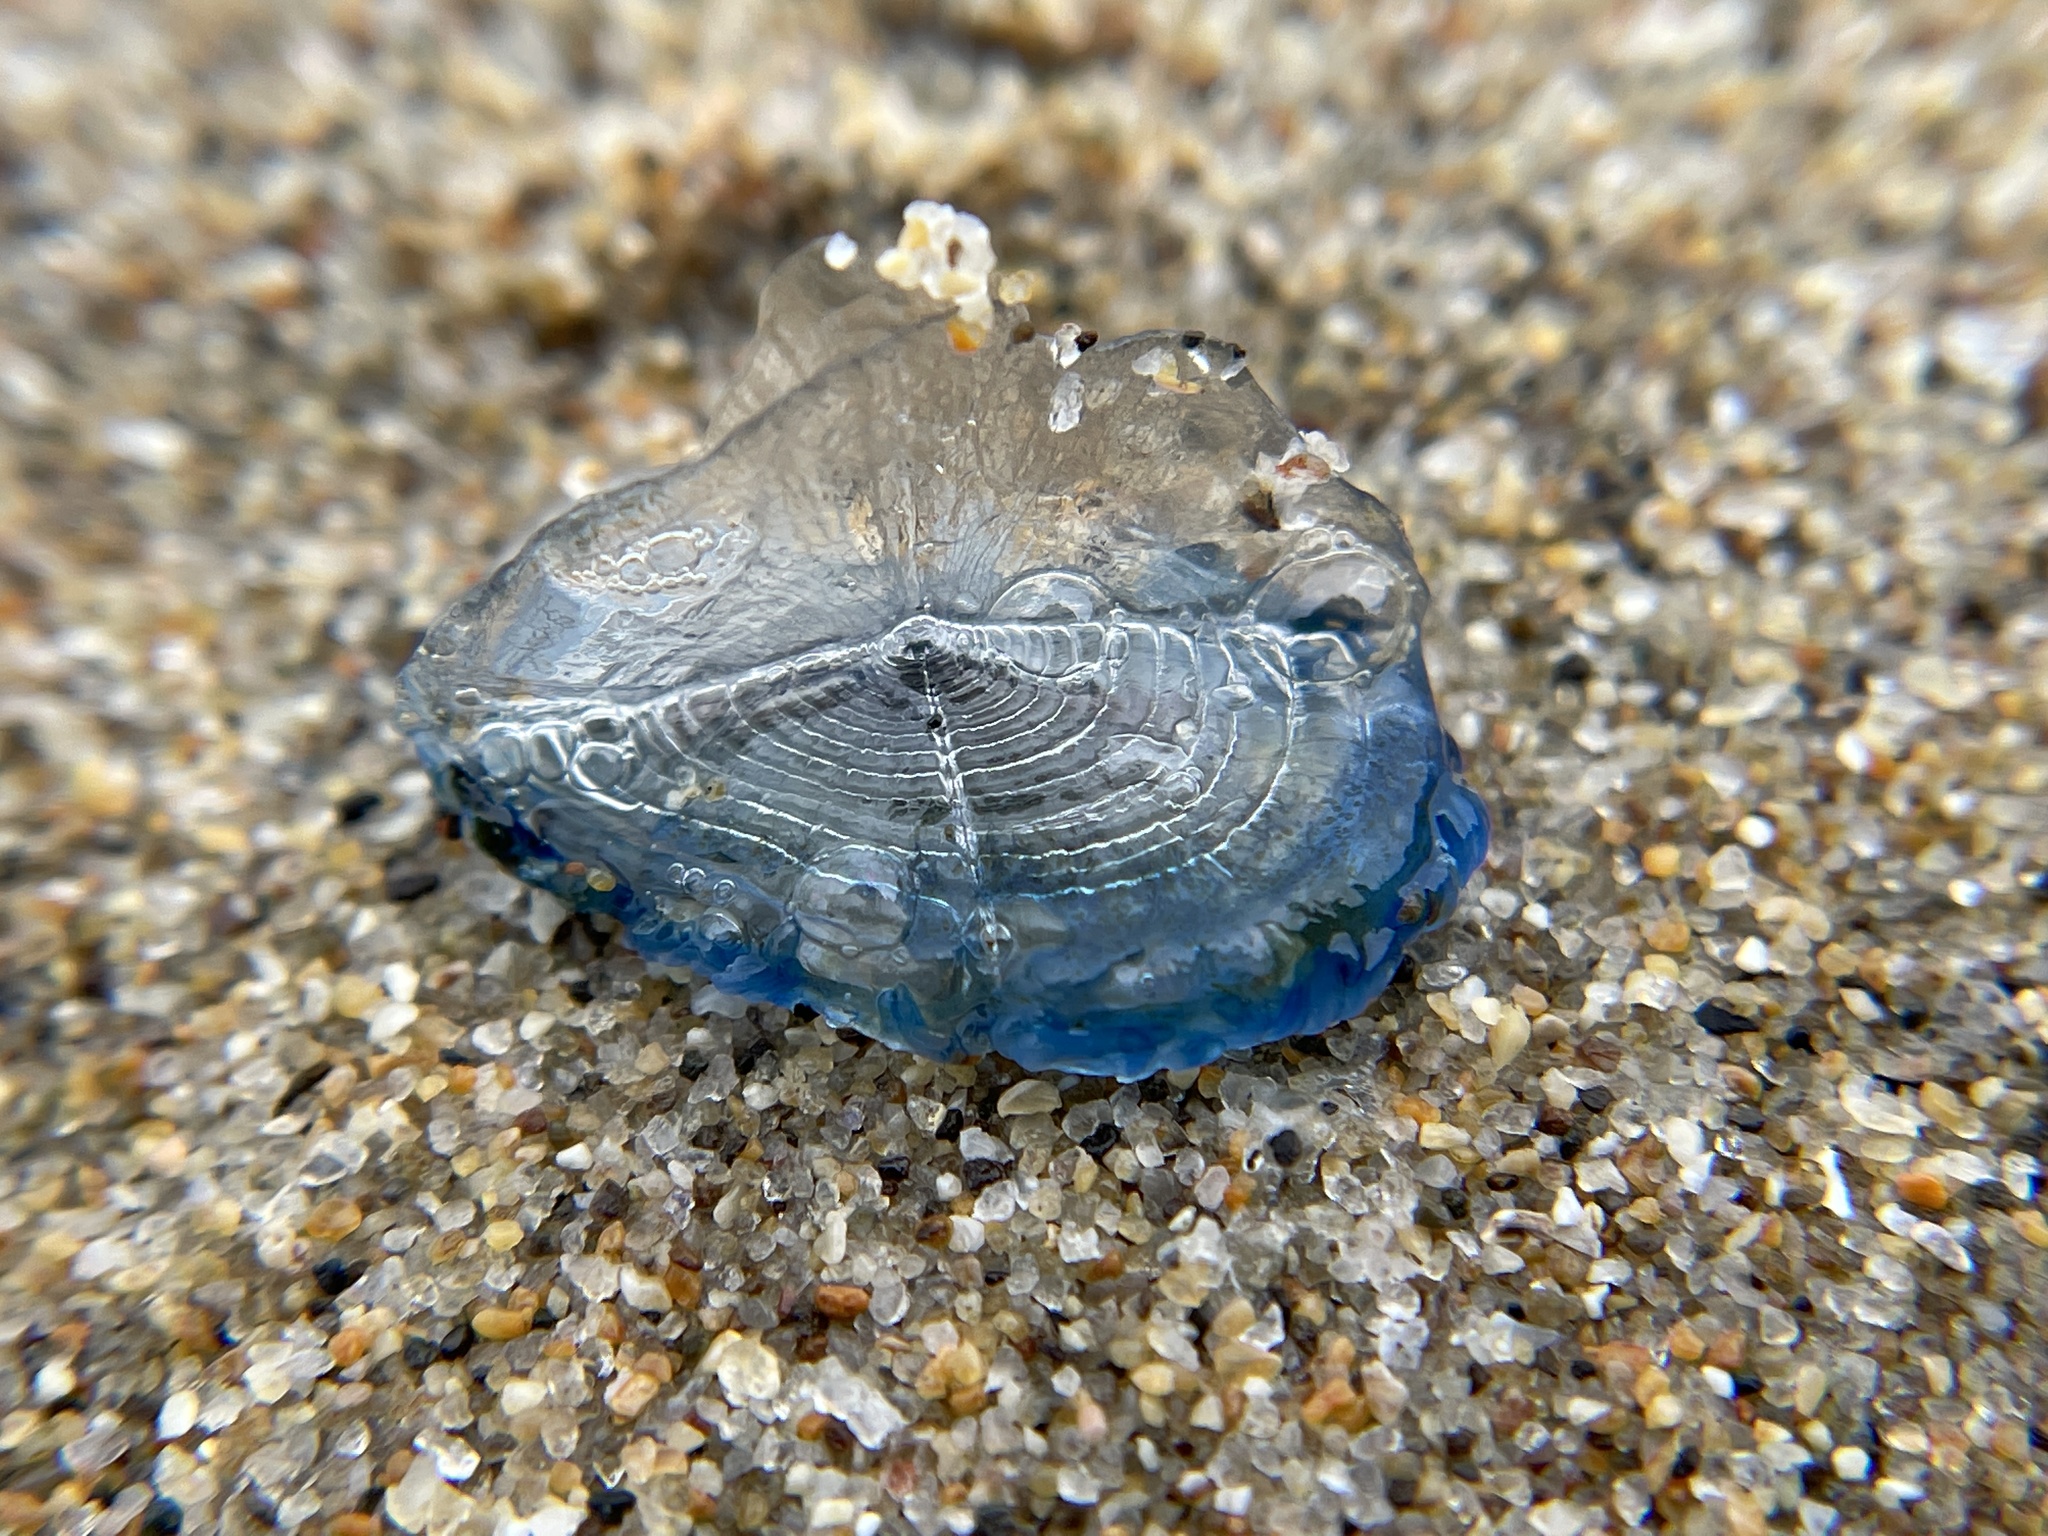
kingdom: Animalia
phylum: Cnidaria
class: Hydrozoa
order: Anthoathecata
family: Porpitidae
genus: Velella
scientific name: Velella velella
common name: By-the-wind-sailor
